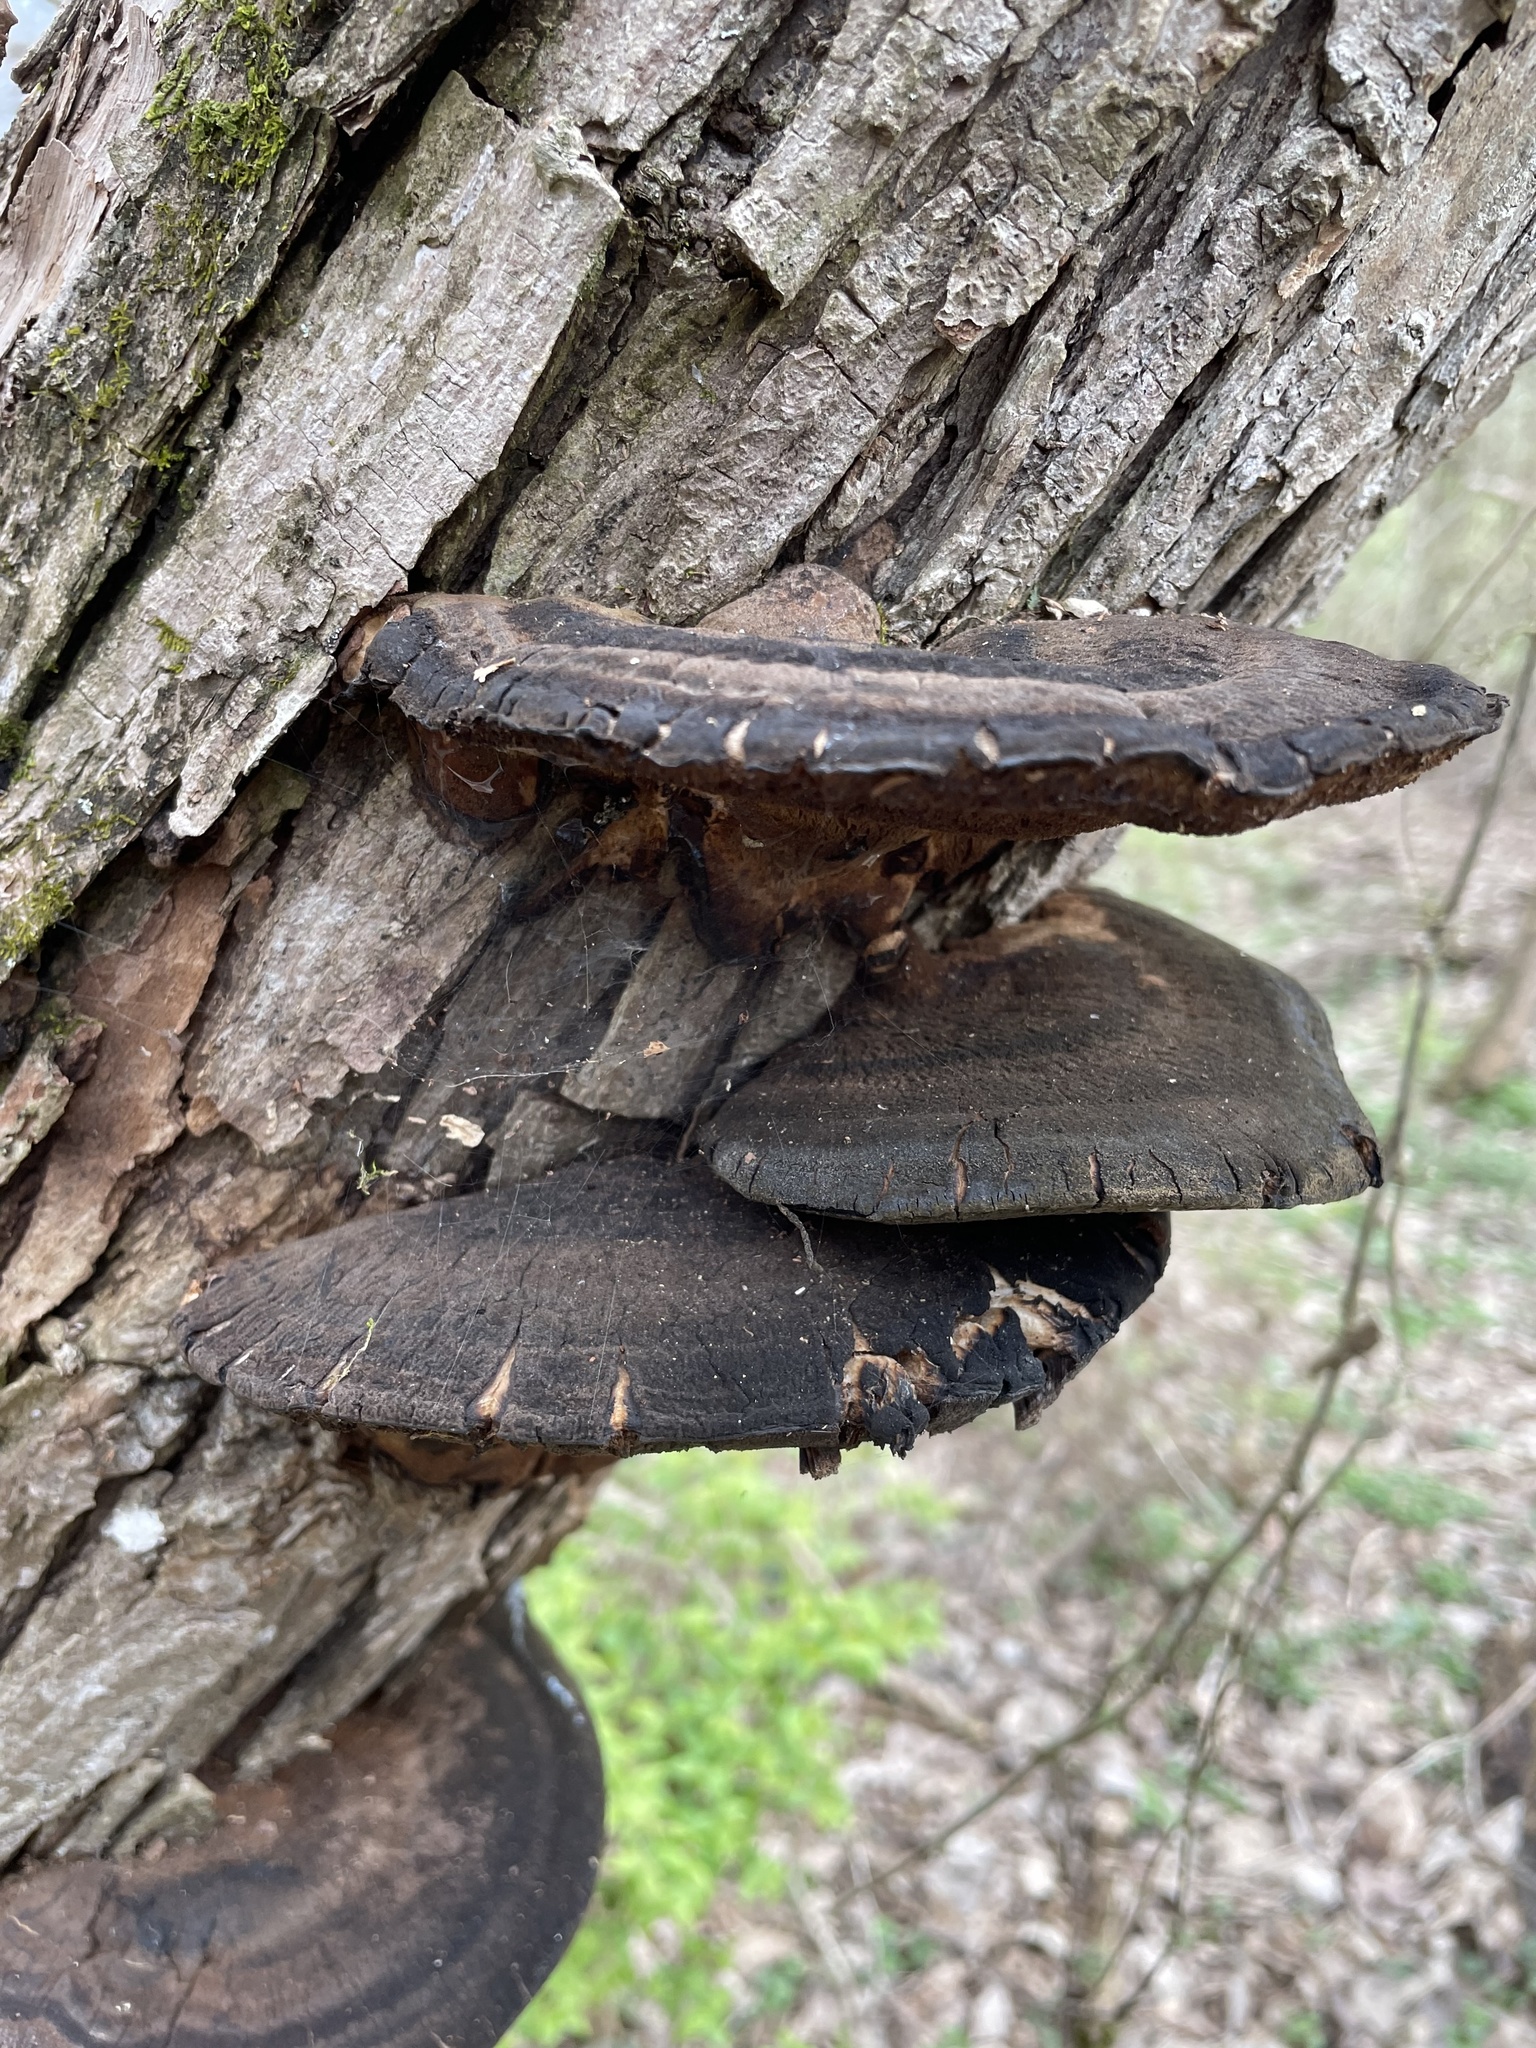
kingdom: Fungi
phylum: Basidiomycota
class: Agaricomycetes
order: Polyporales
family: Ischnodermataceae
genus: Ischnoderma
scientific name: Ischnoderma resinosum
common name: Resinous polypore
